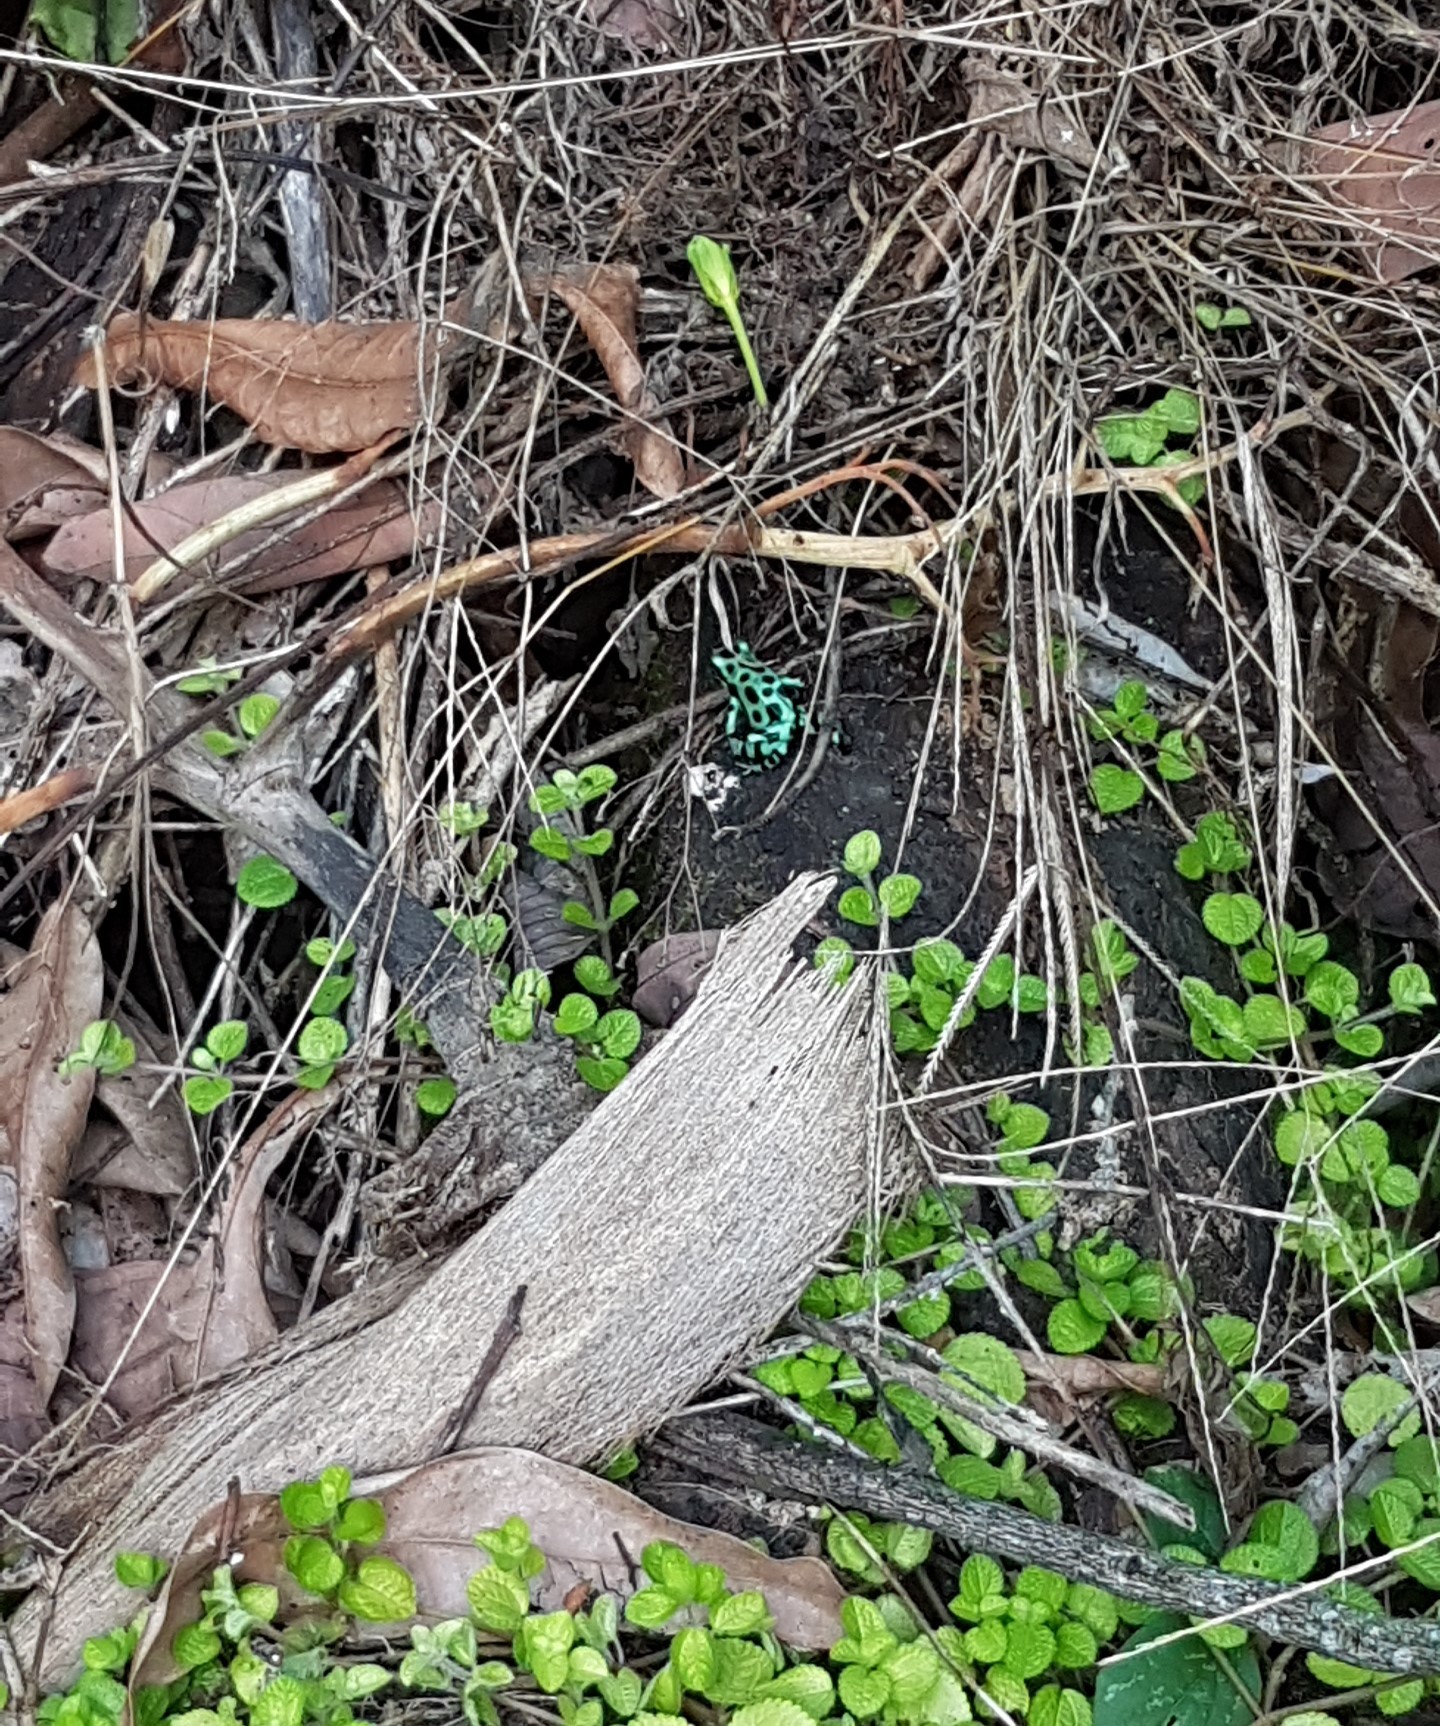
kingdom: Animalia
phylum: Chordata
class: Amphibia
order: Anura
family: Dendrobatidae
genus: Dendrobates
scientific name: Dendrobates auratus
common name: Green and black poison dart frog
